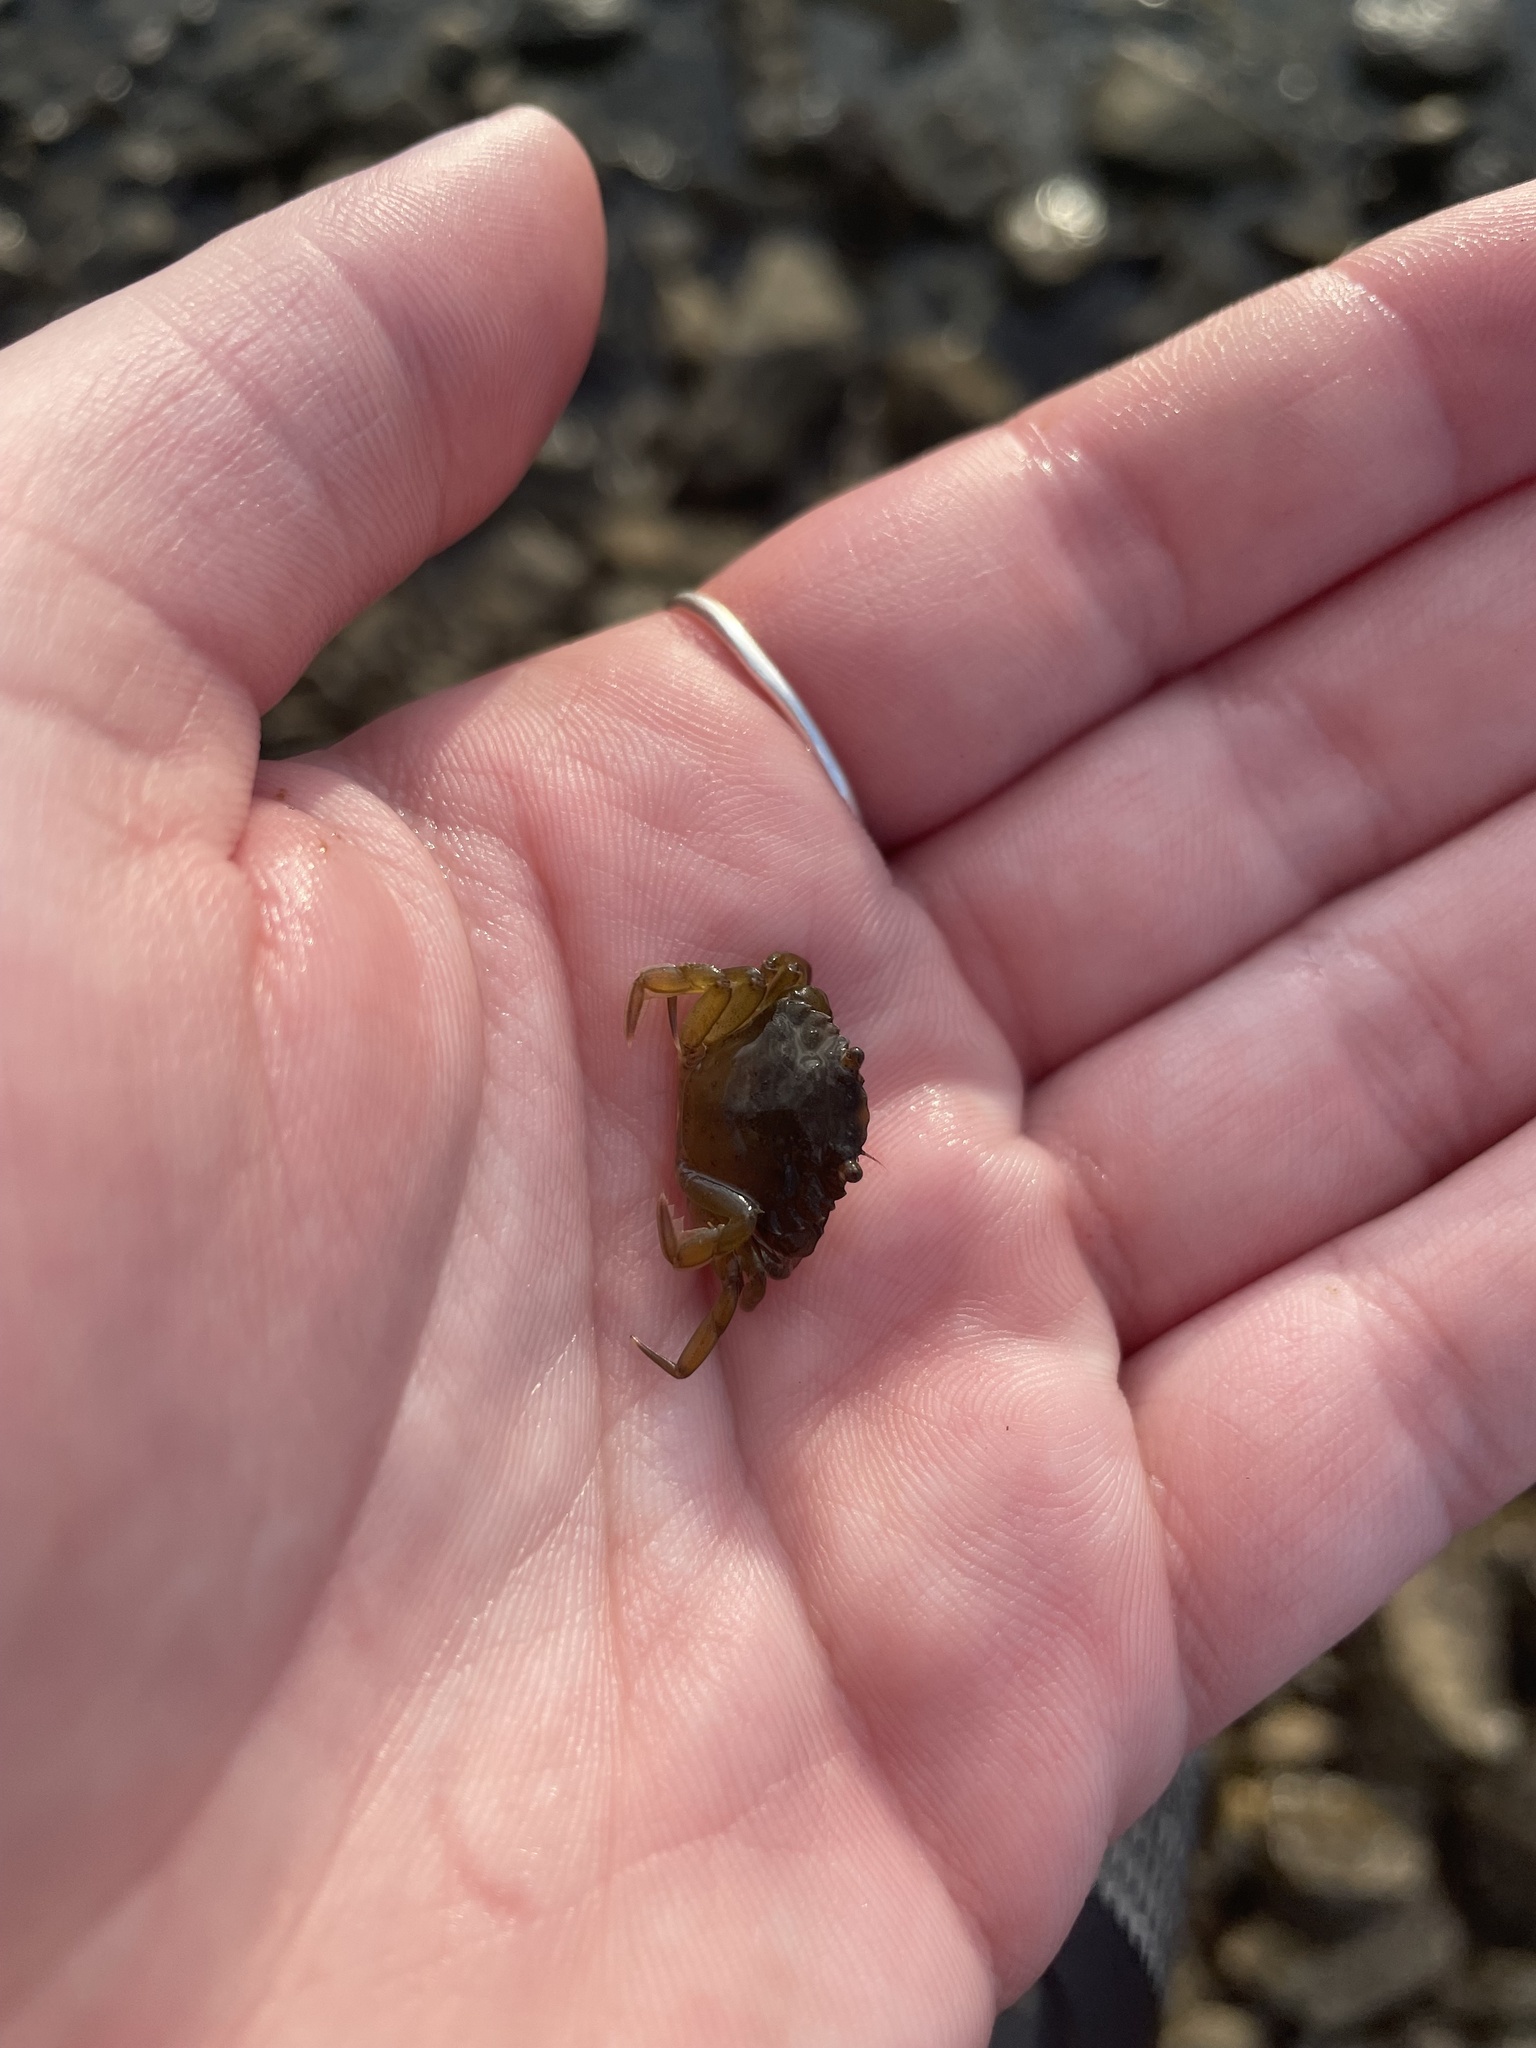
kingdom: Animalia
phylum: Arthropoda
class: Malacostraca
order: Decapoda
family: Carcinidae
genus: Carcinus
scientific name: Carcinus maenas
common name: European green crab
